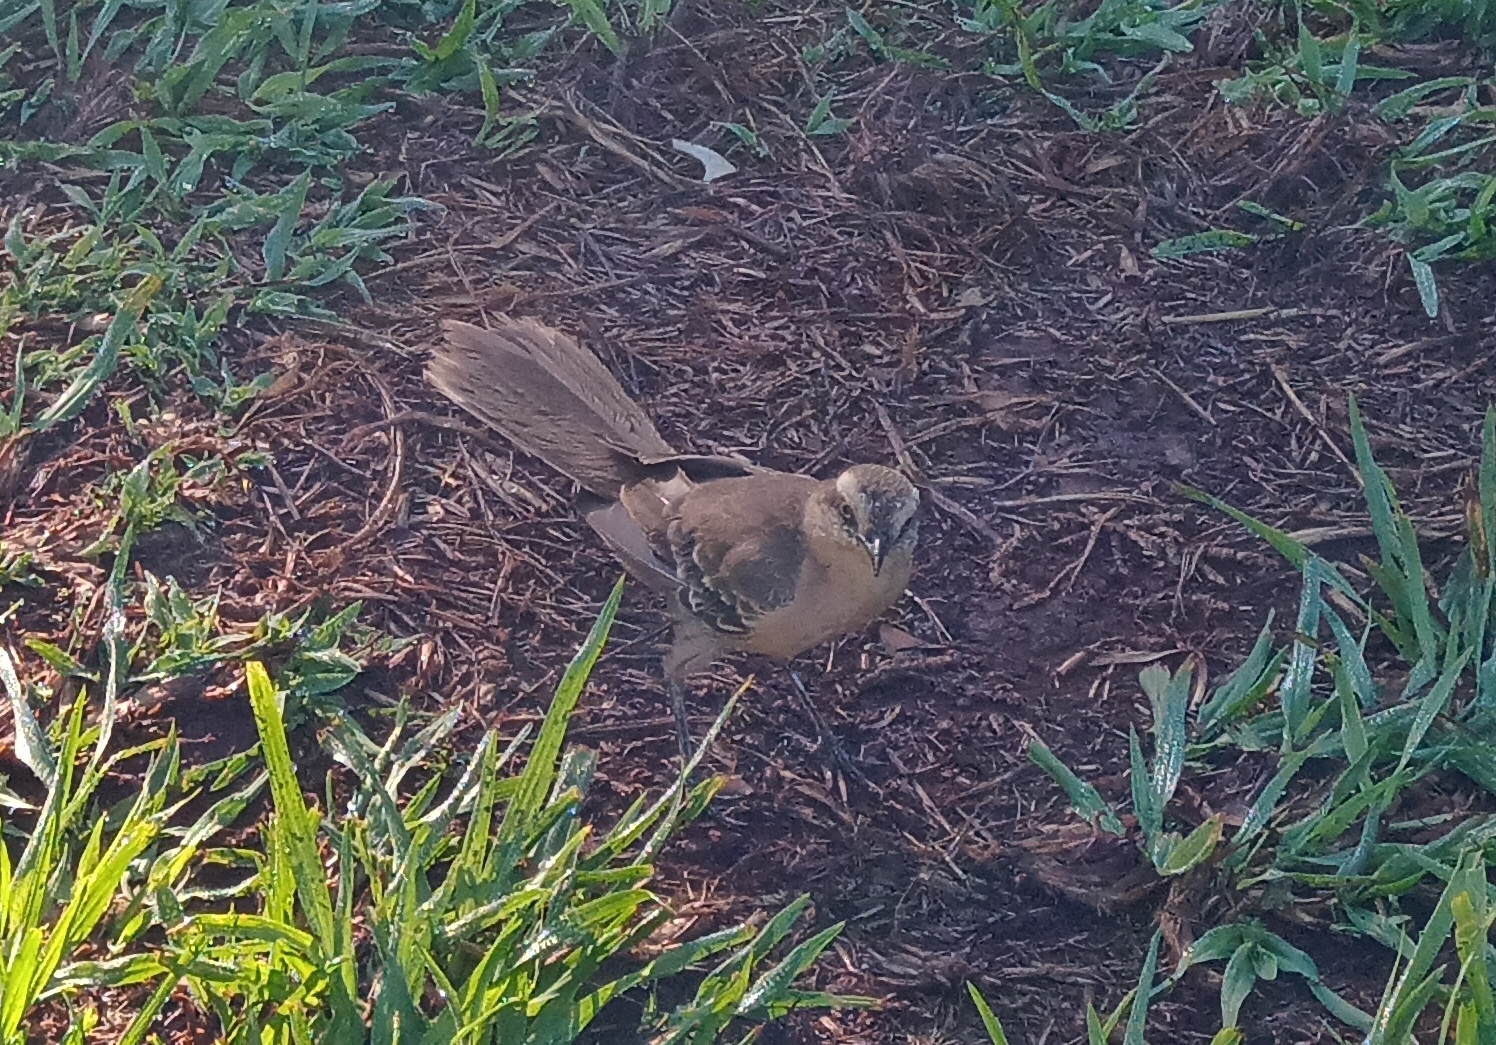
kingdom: Animalia
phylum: Chordata
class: Aves
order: Passeriformes
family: Mimidae
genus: Mimus
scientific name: Mimus saturninus
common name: Chalk-browed mockingbird
